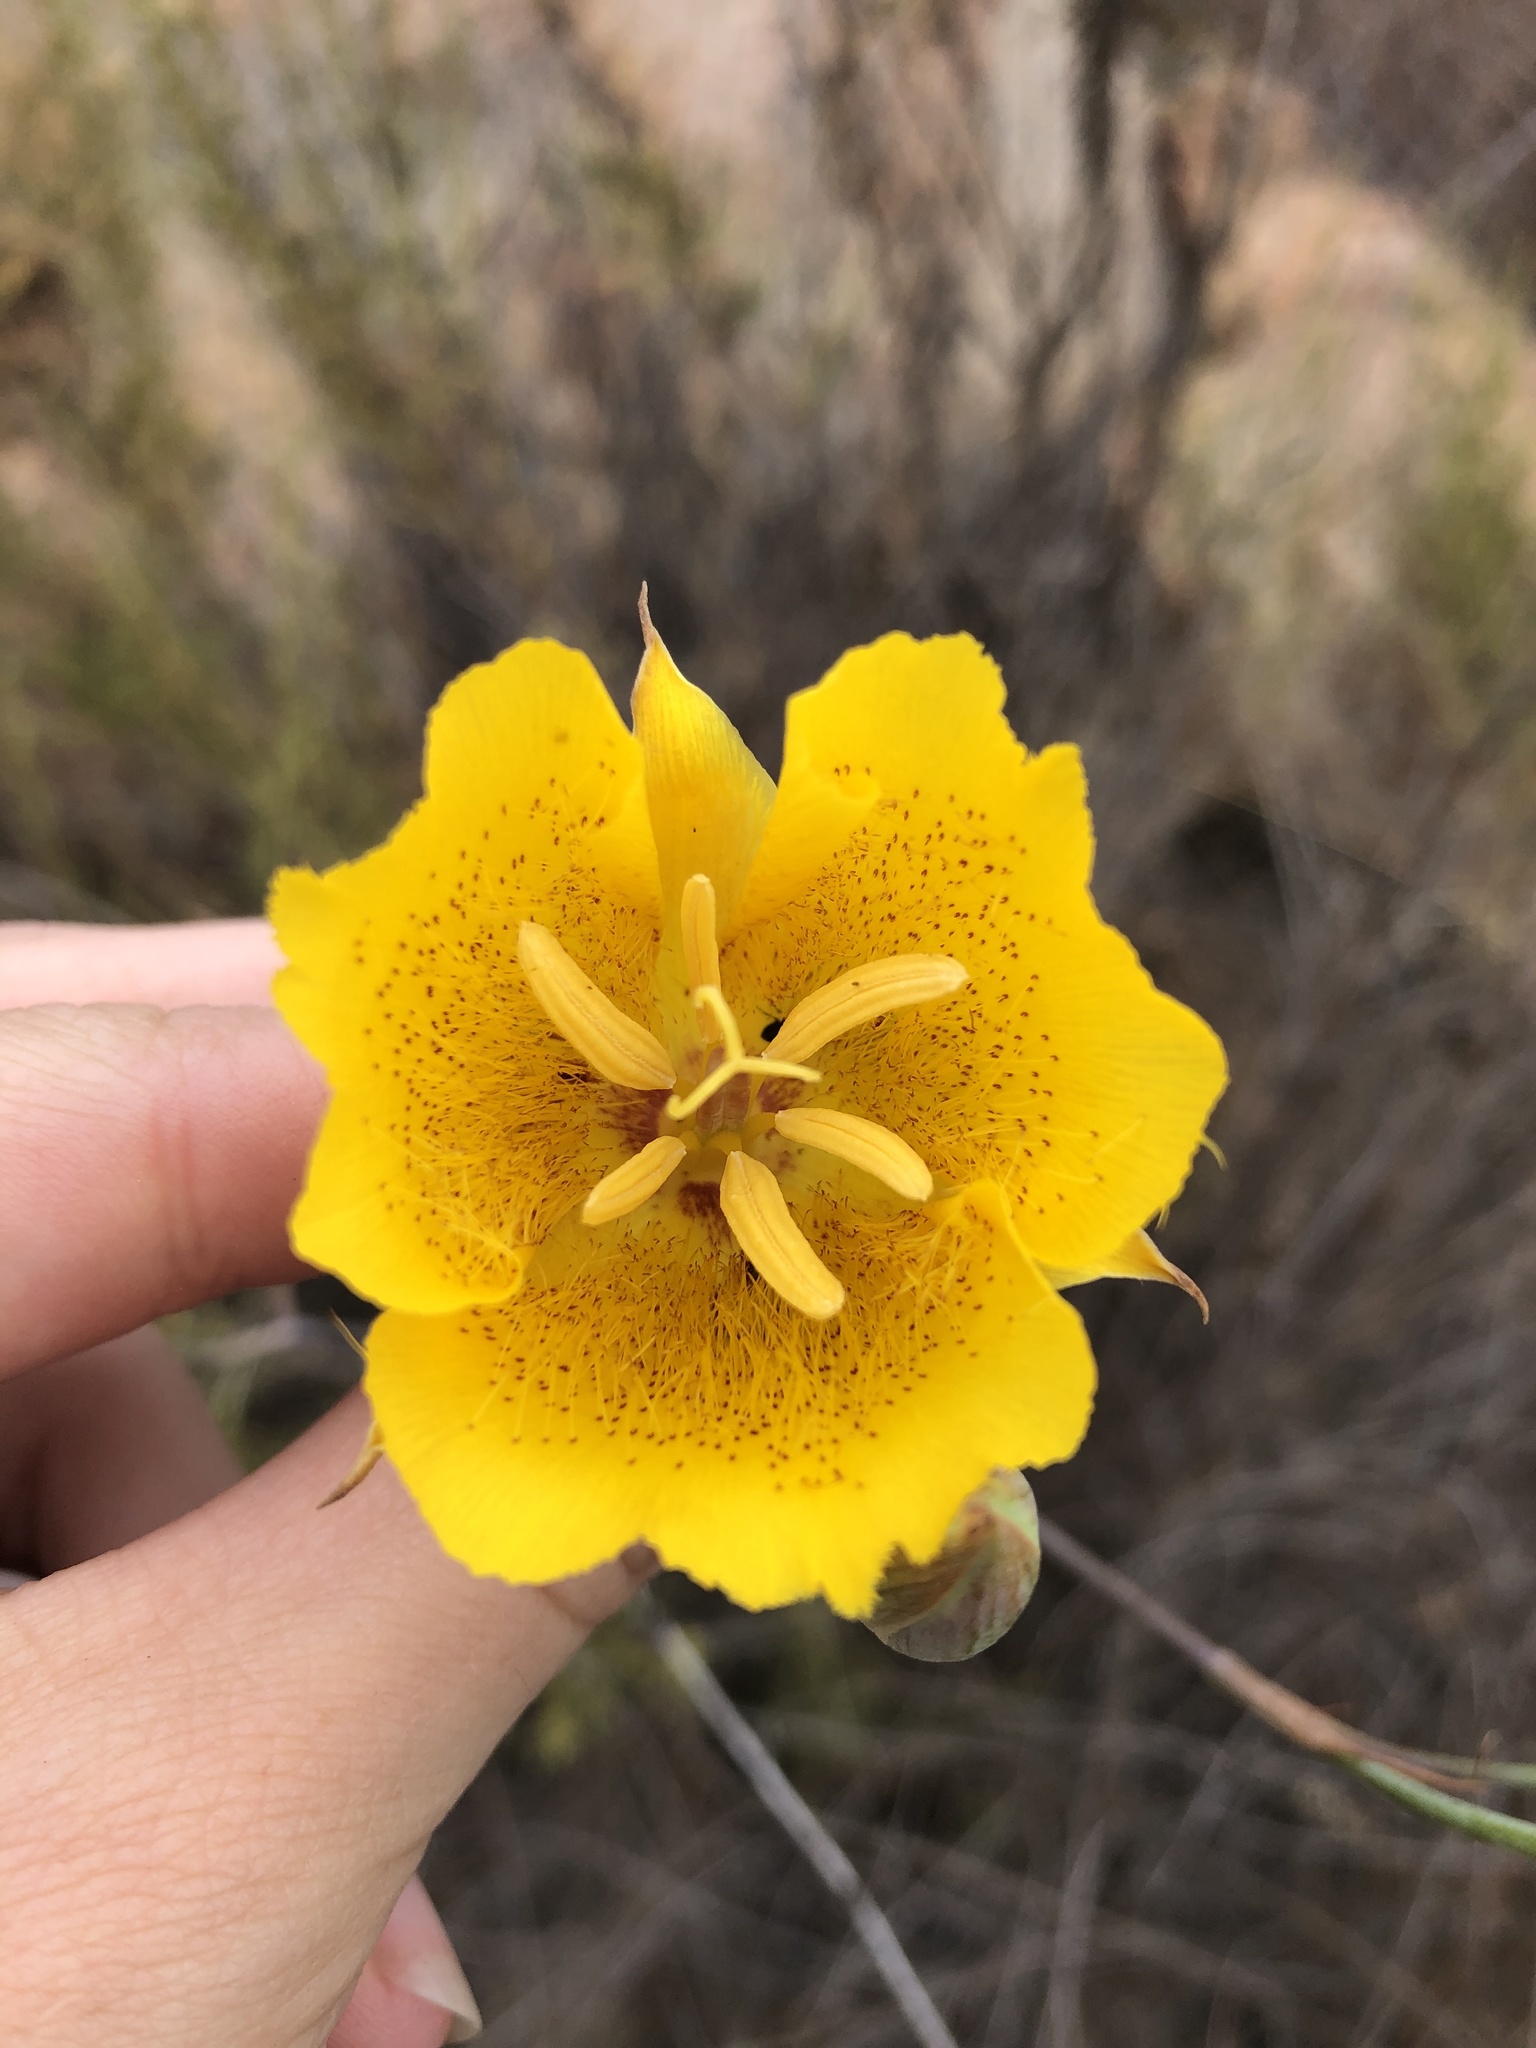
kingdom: Plantae
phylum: Tracheophyta
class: Liliopsida
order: Liliales
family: Liliaceae
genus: Calochortus
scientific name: Calochortus weedii
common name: Weed's mariposa-lily
